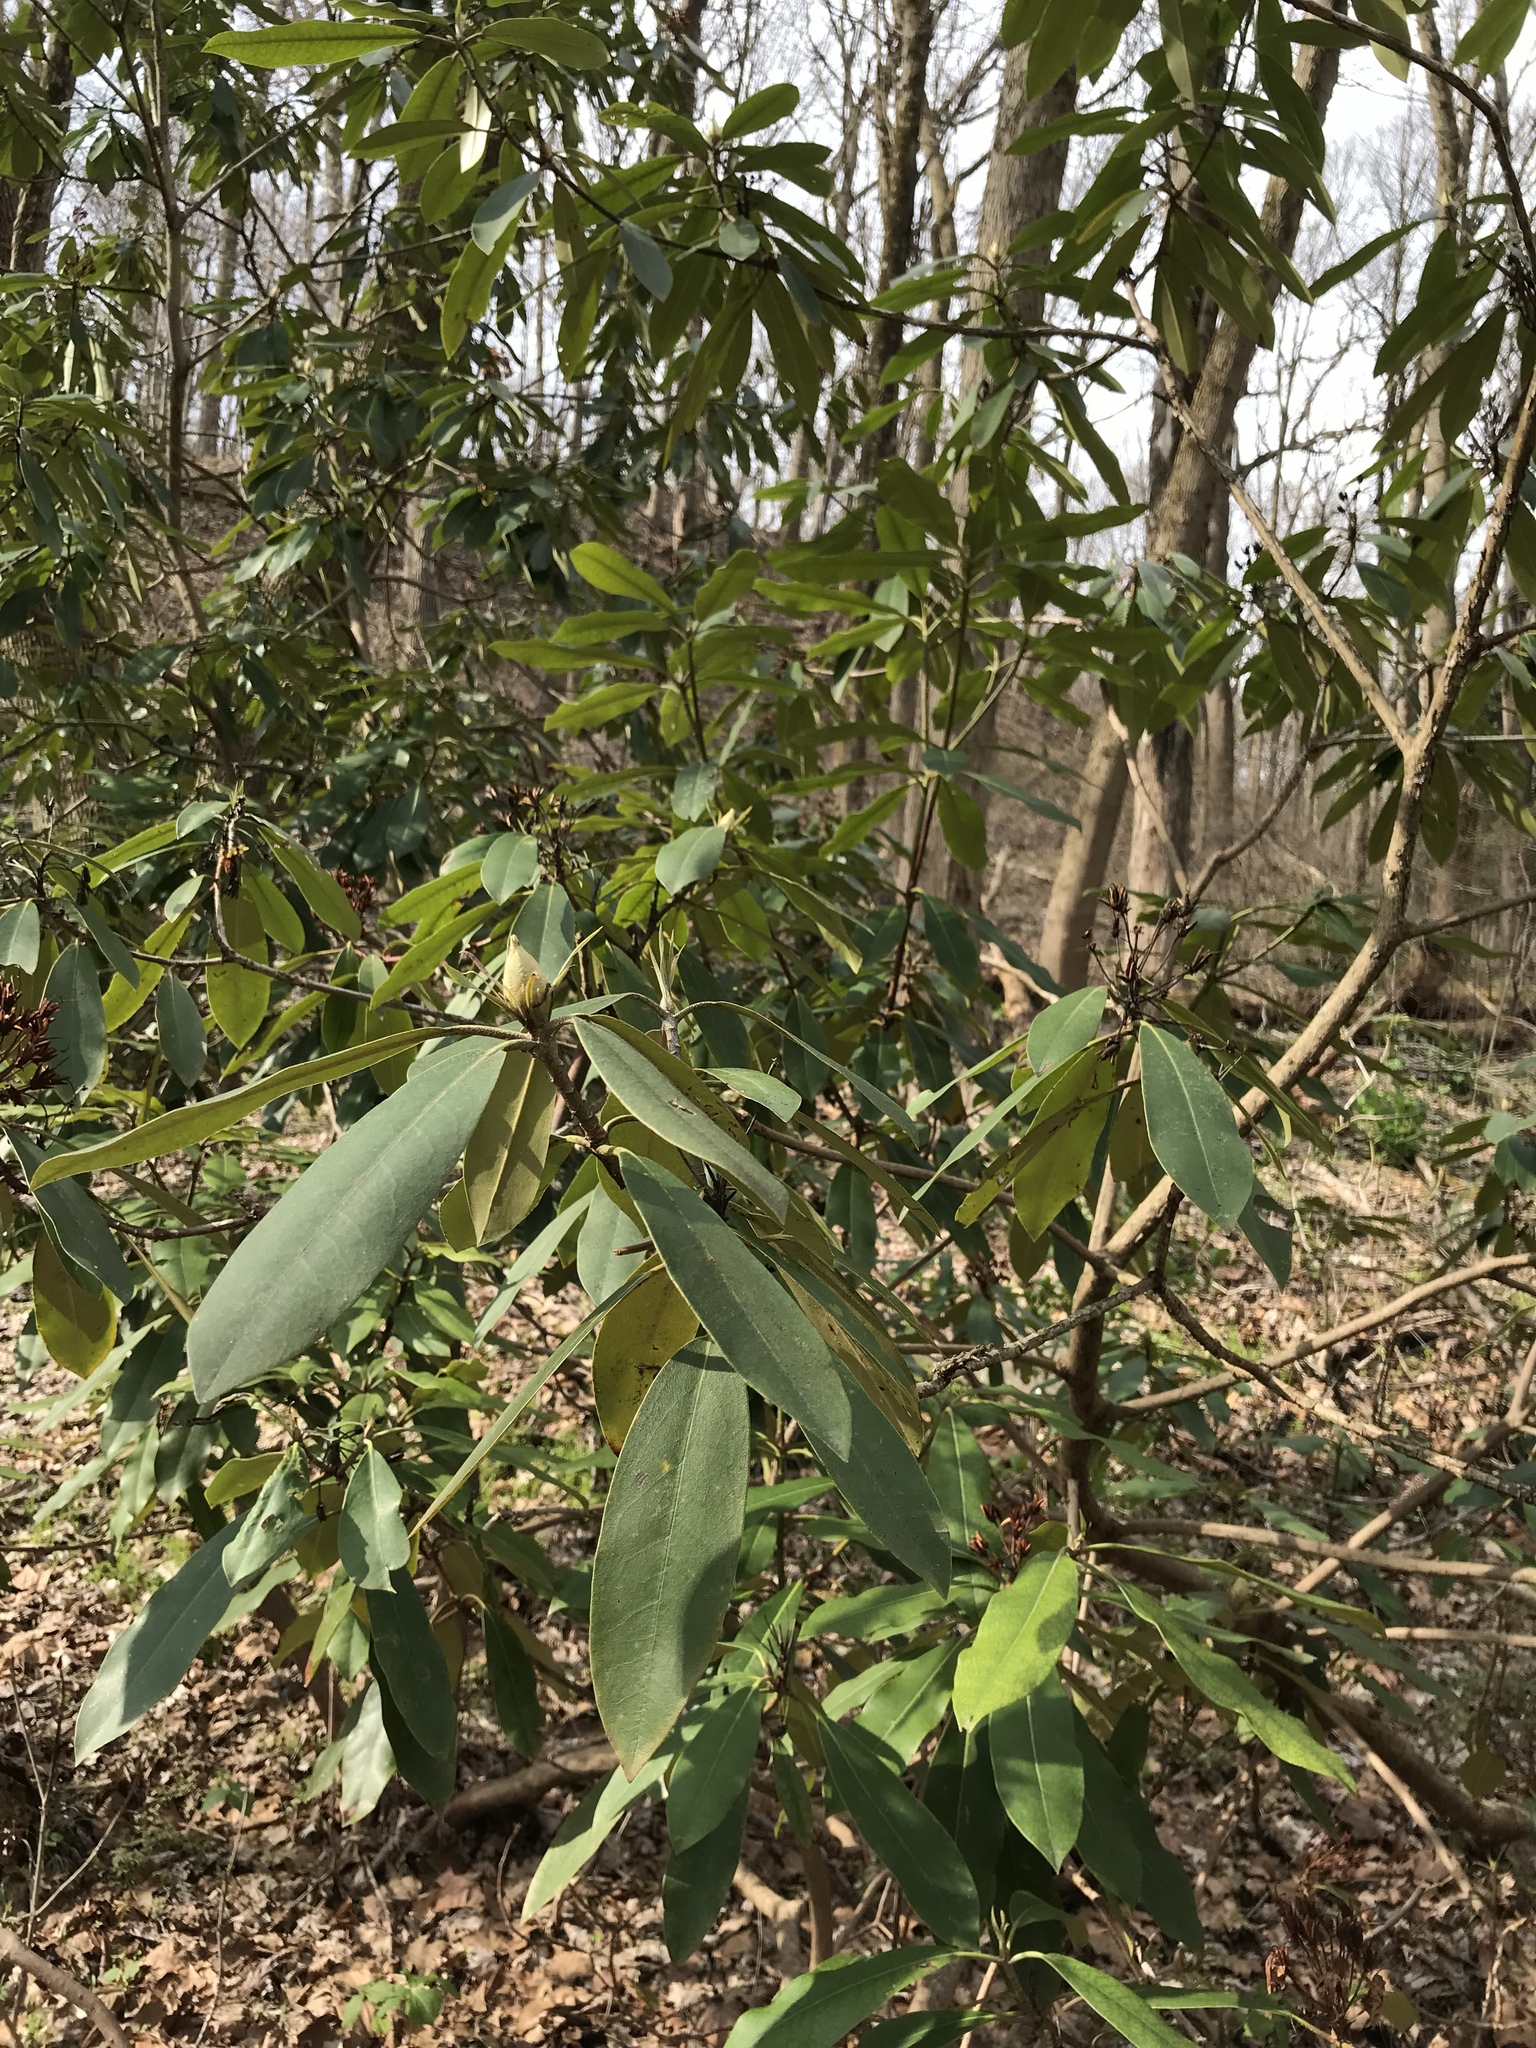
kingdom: Plantae
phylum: Tracheophyta
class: Magnoliopsida
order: Ericales
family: Ericaceae
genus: Rhododendron
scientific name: Rhododendron maximum
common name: Great rhododendron
